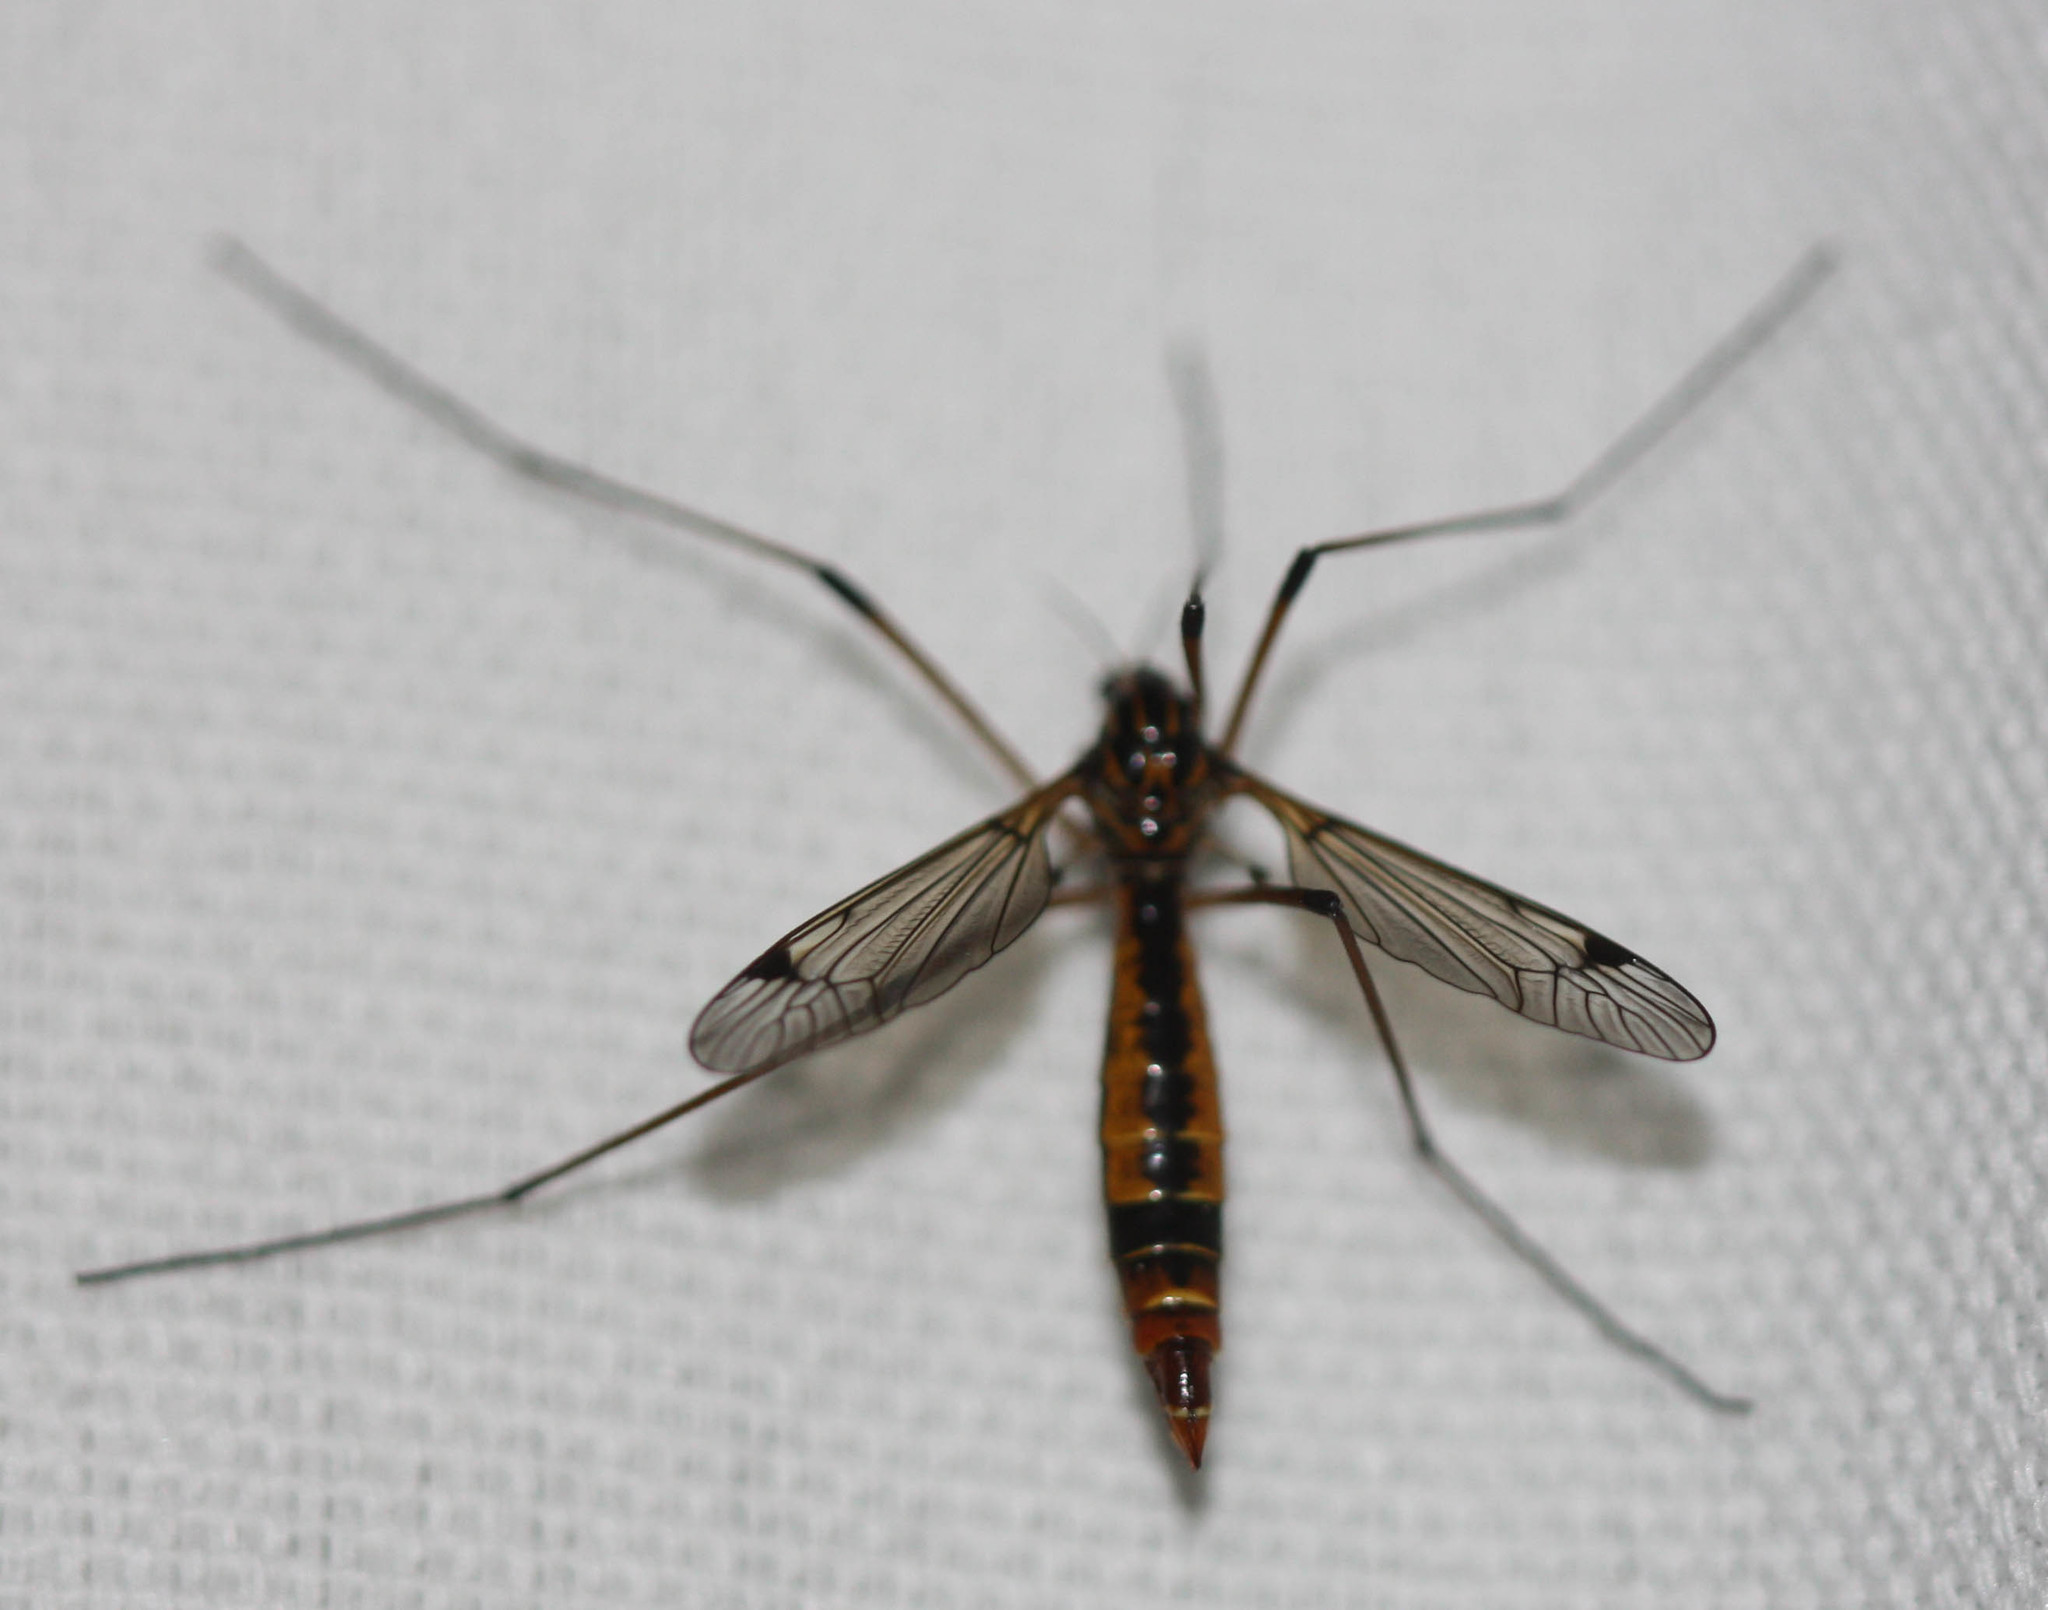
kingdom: Animalia
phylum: Arthropoda
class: Insecta
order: Diptera
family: Tipulidae
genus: Tipula
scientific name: Tipula californica
